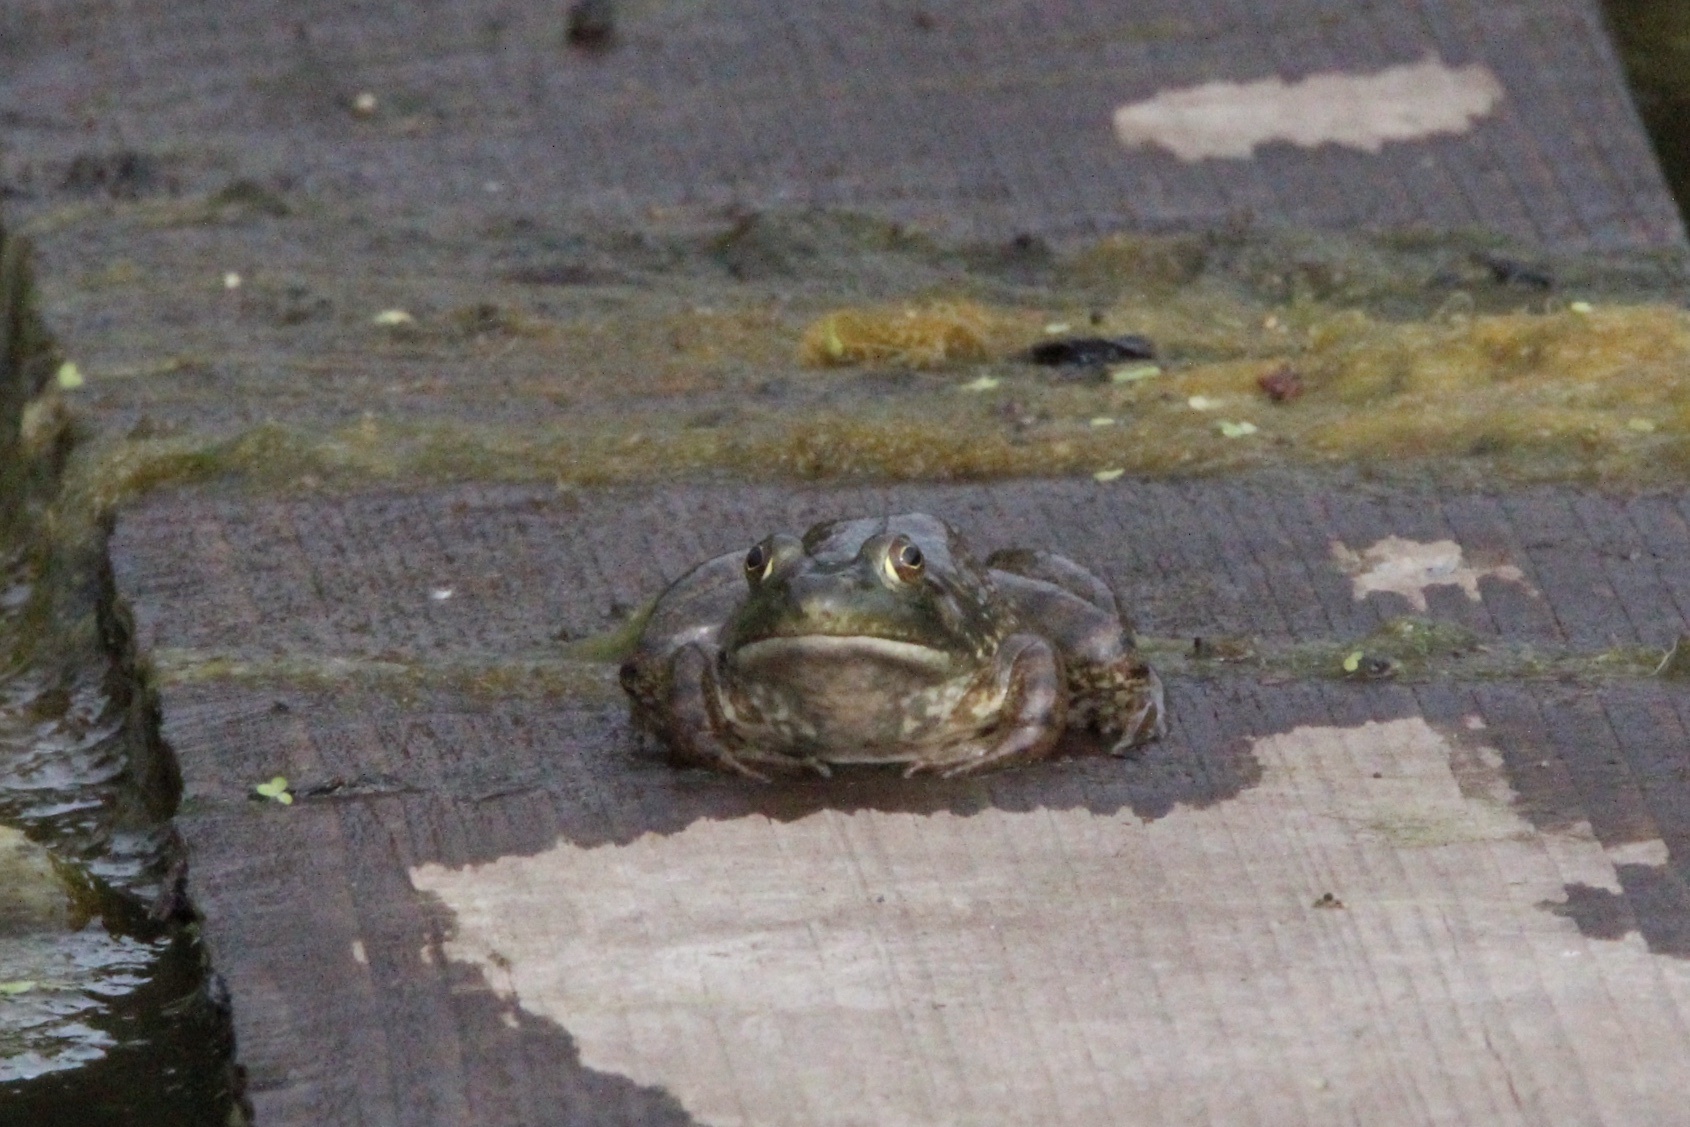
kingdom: Animalia
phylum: Chordata
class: Amphibia
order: Anura
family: Ranidae
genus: Lithobates
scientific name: Lithobates catesbeianus
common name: American bullfrog
